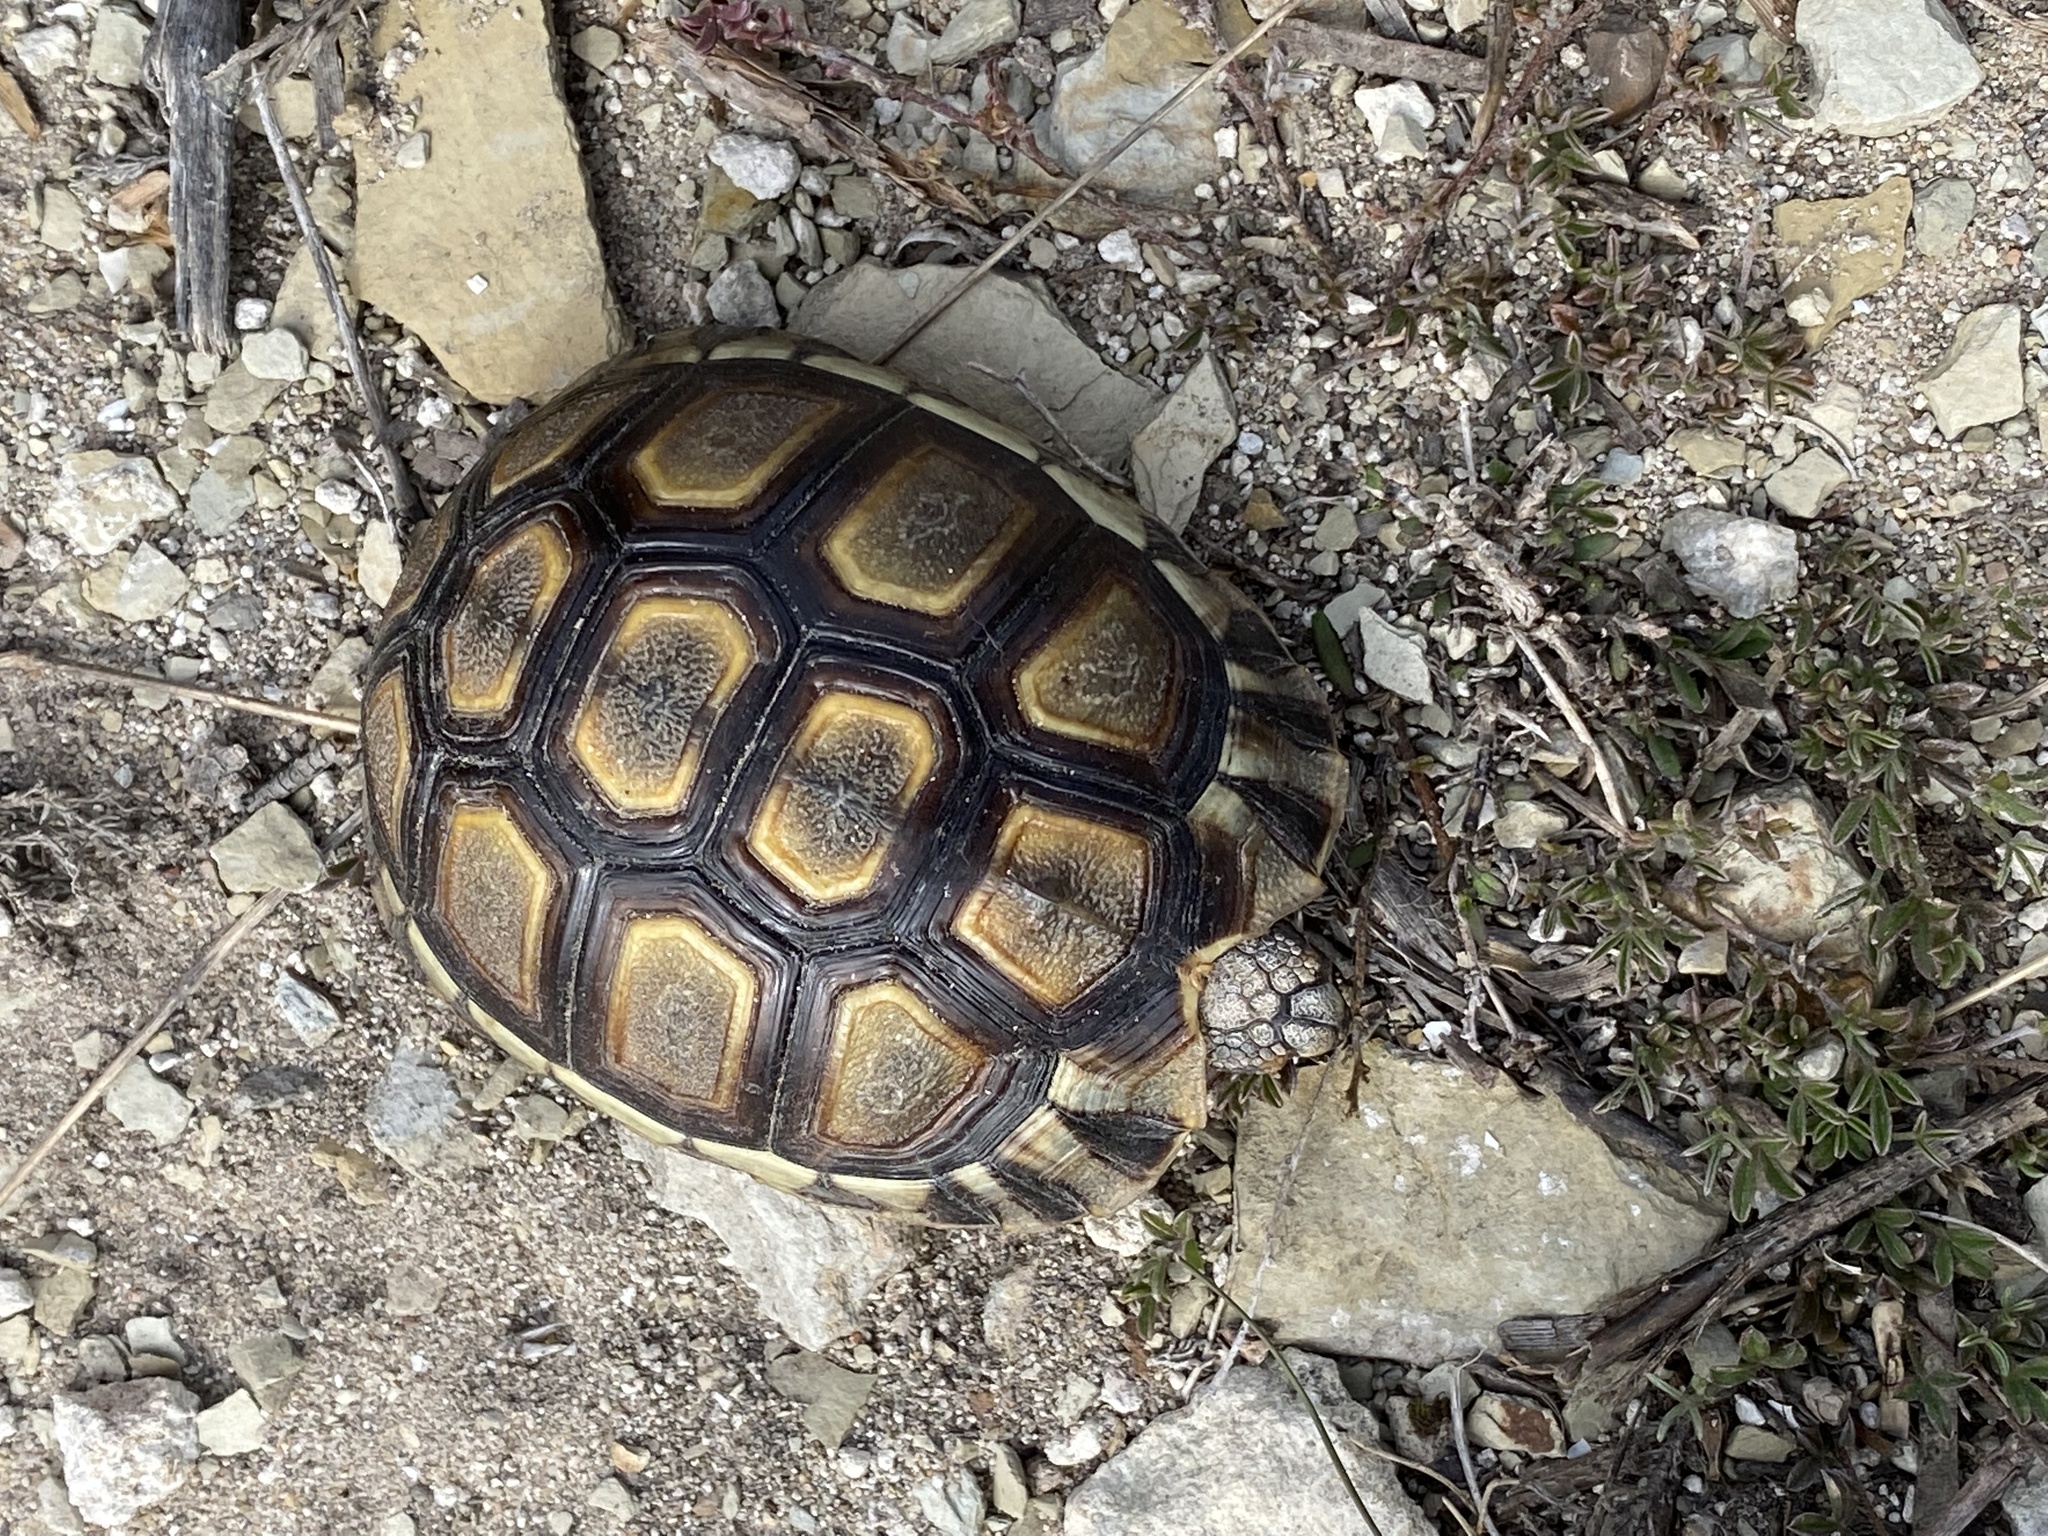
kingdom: Animalia
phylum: Chordata
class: Testudines
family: Testudinidae
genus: Chersina
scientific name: Chersina angulata
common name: South african bowsprit tortoise
